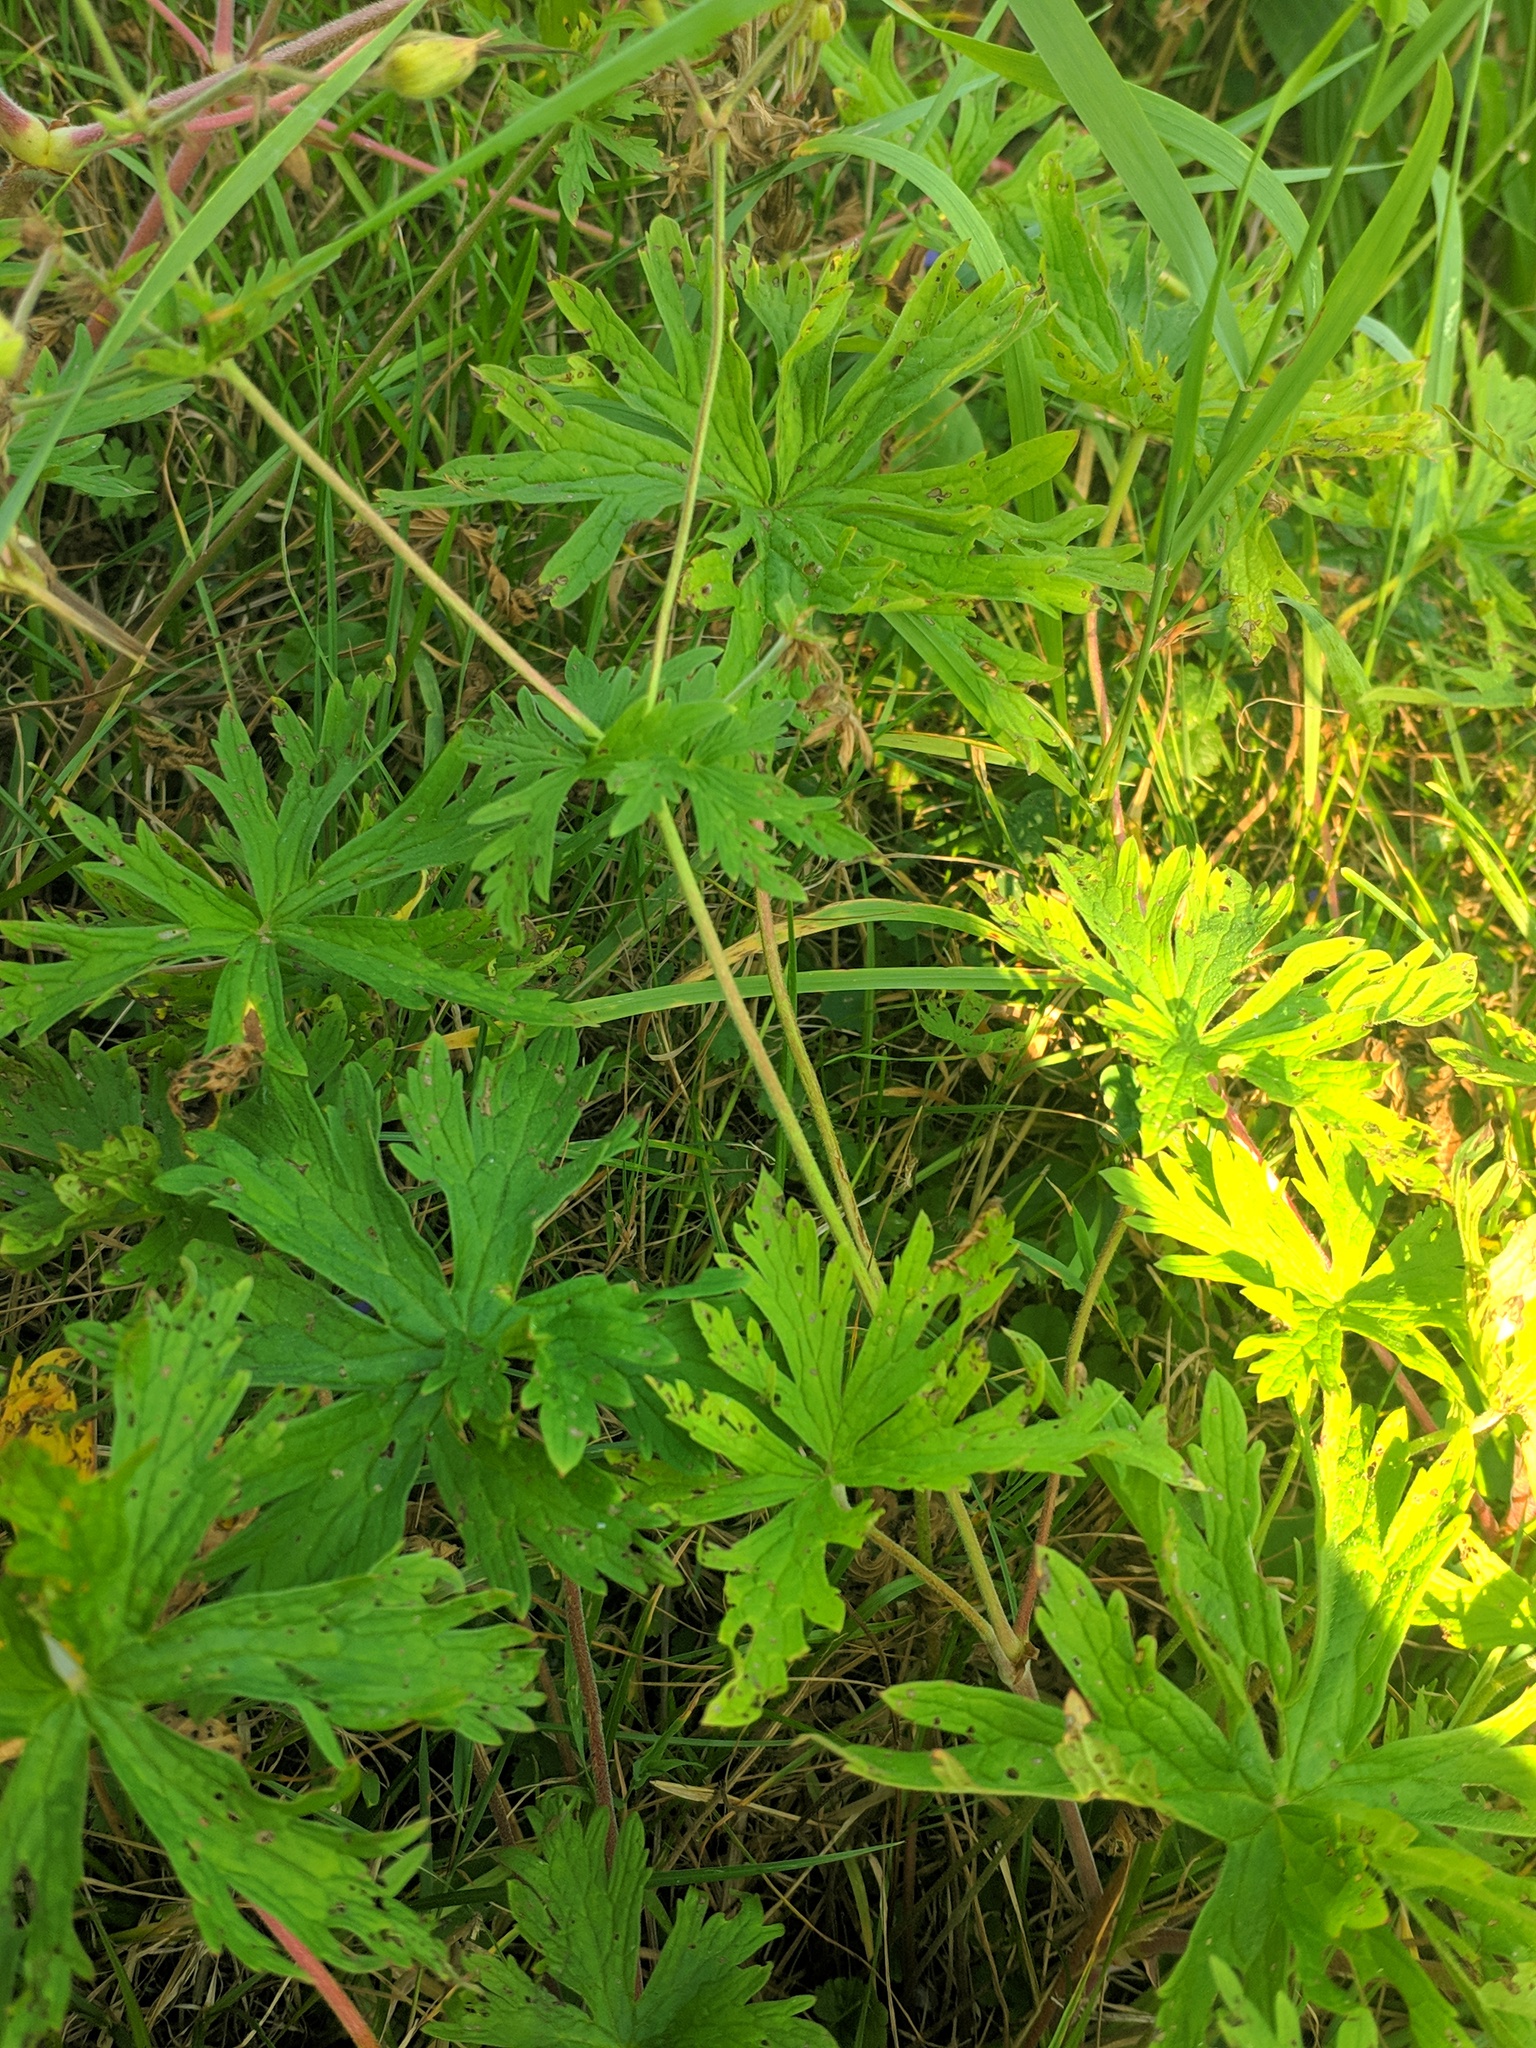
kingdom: Plantae
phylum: Tracheophyta
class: Magnoliopsida
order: Geraniales
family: Geraniaceae
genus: Geranium
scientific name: Geranium pratense
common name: Meadow crane's-bill
